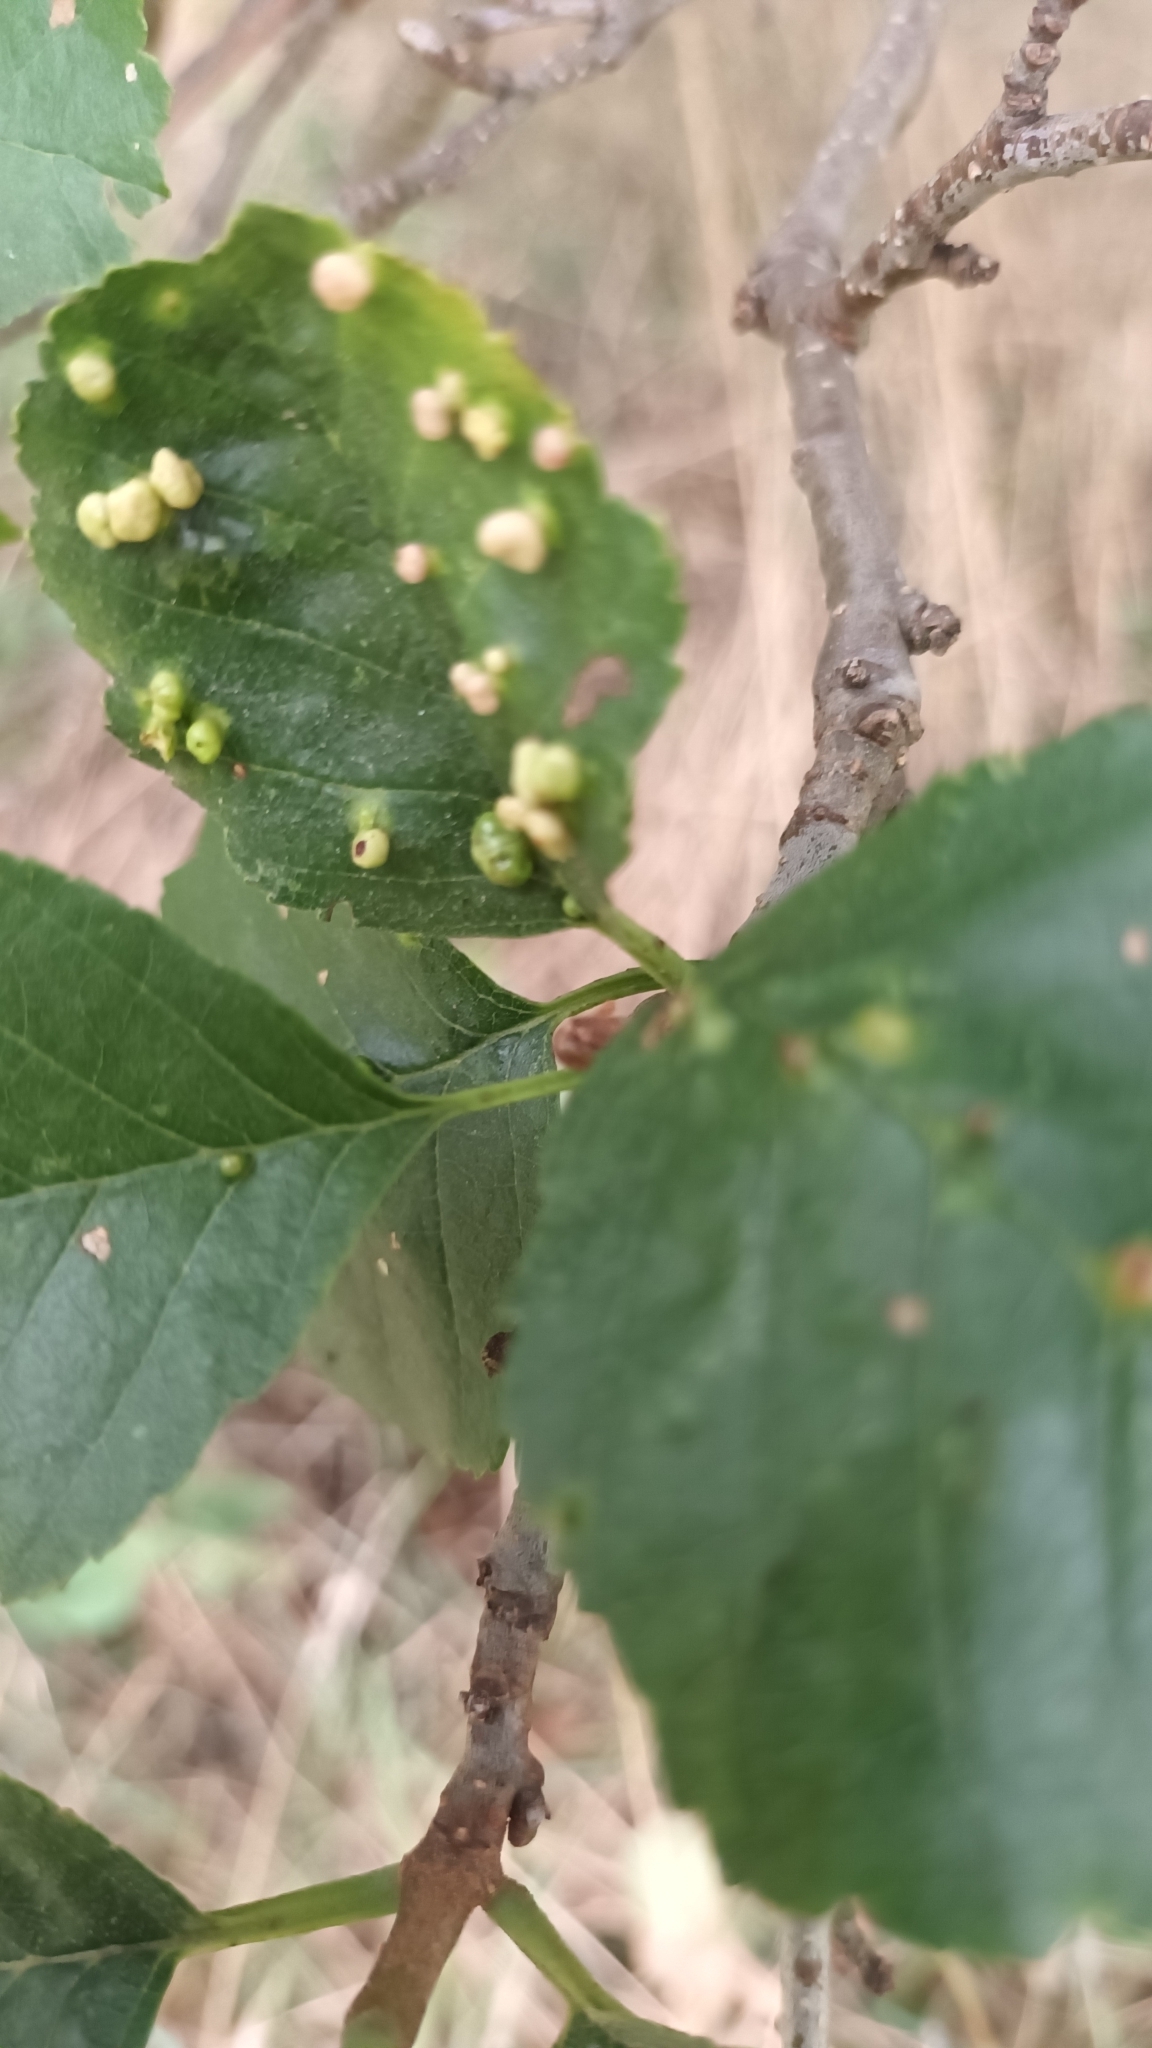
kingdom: Animalia
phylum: Arthropoda
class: Arachnida
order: Trombidiformes
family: Eriophyidae
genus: Eriophyes
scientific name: Eriophyes laevis
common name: Alder leaf gall mite
